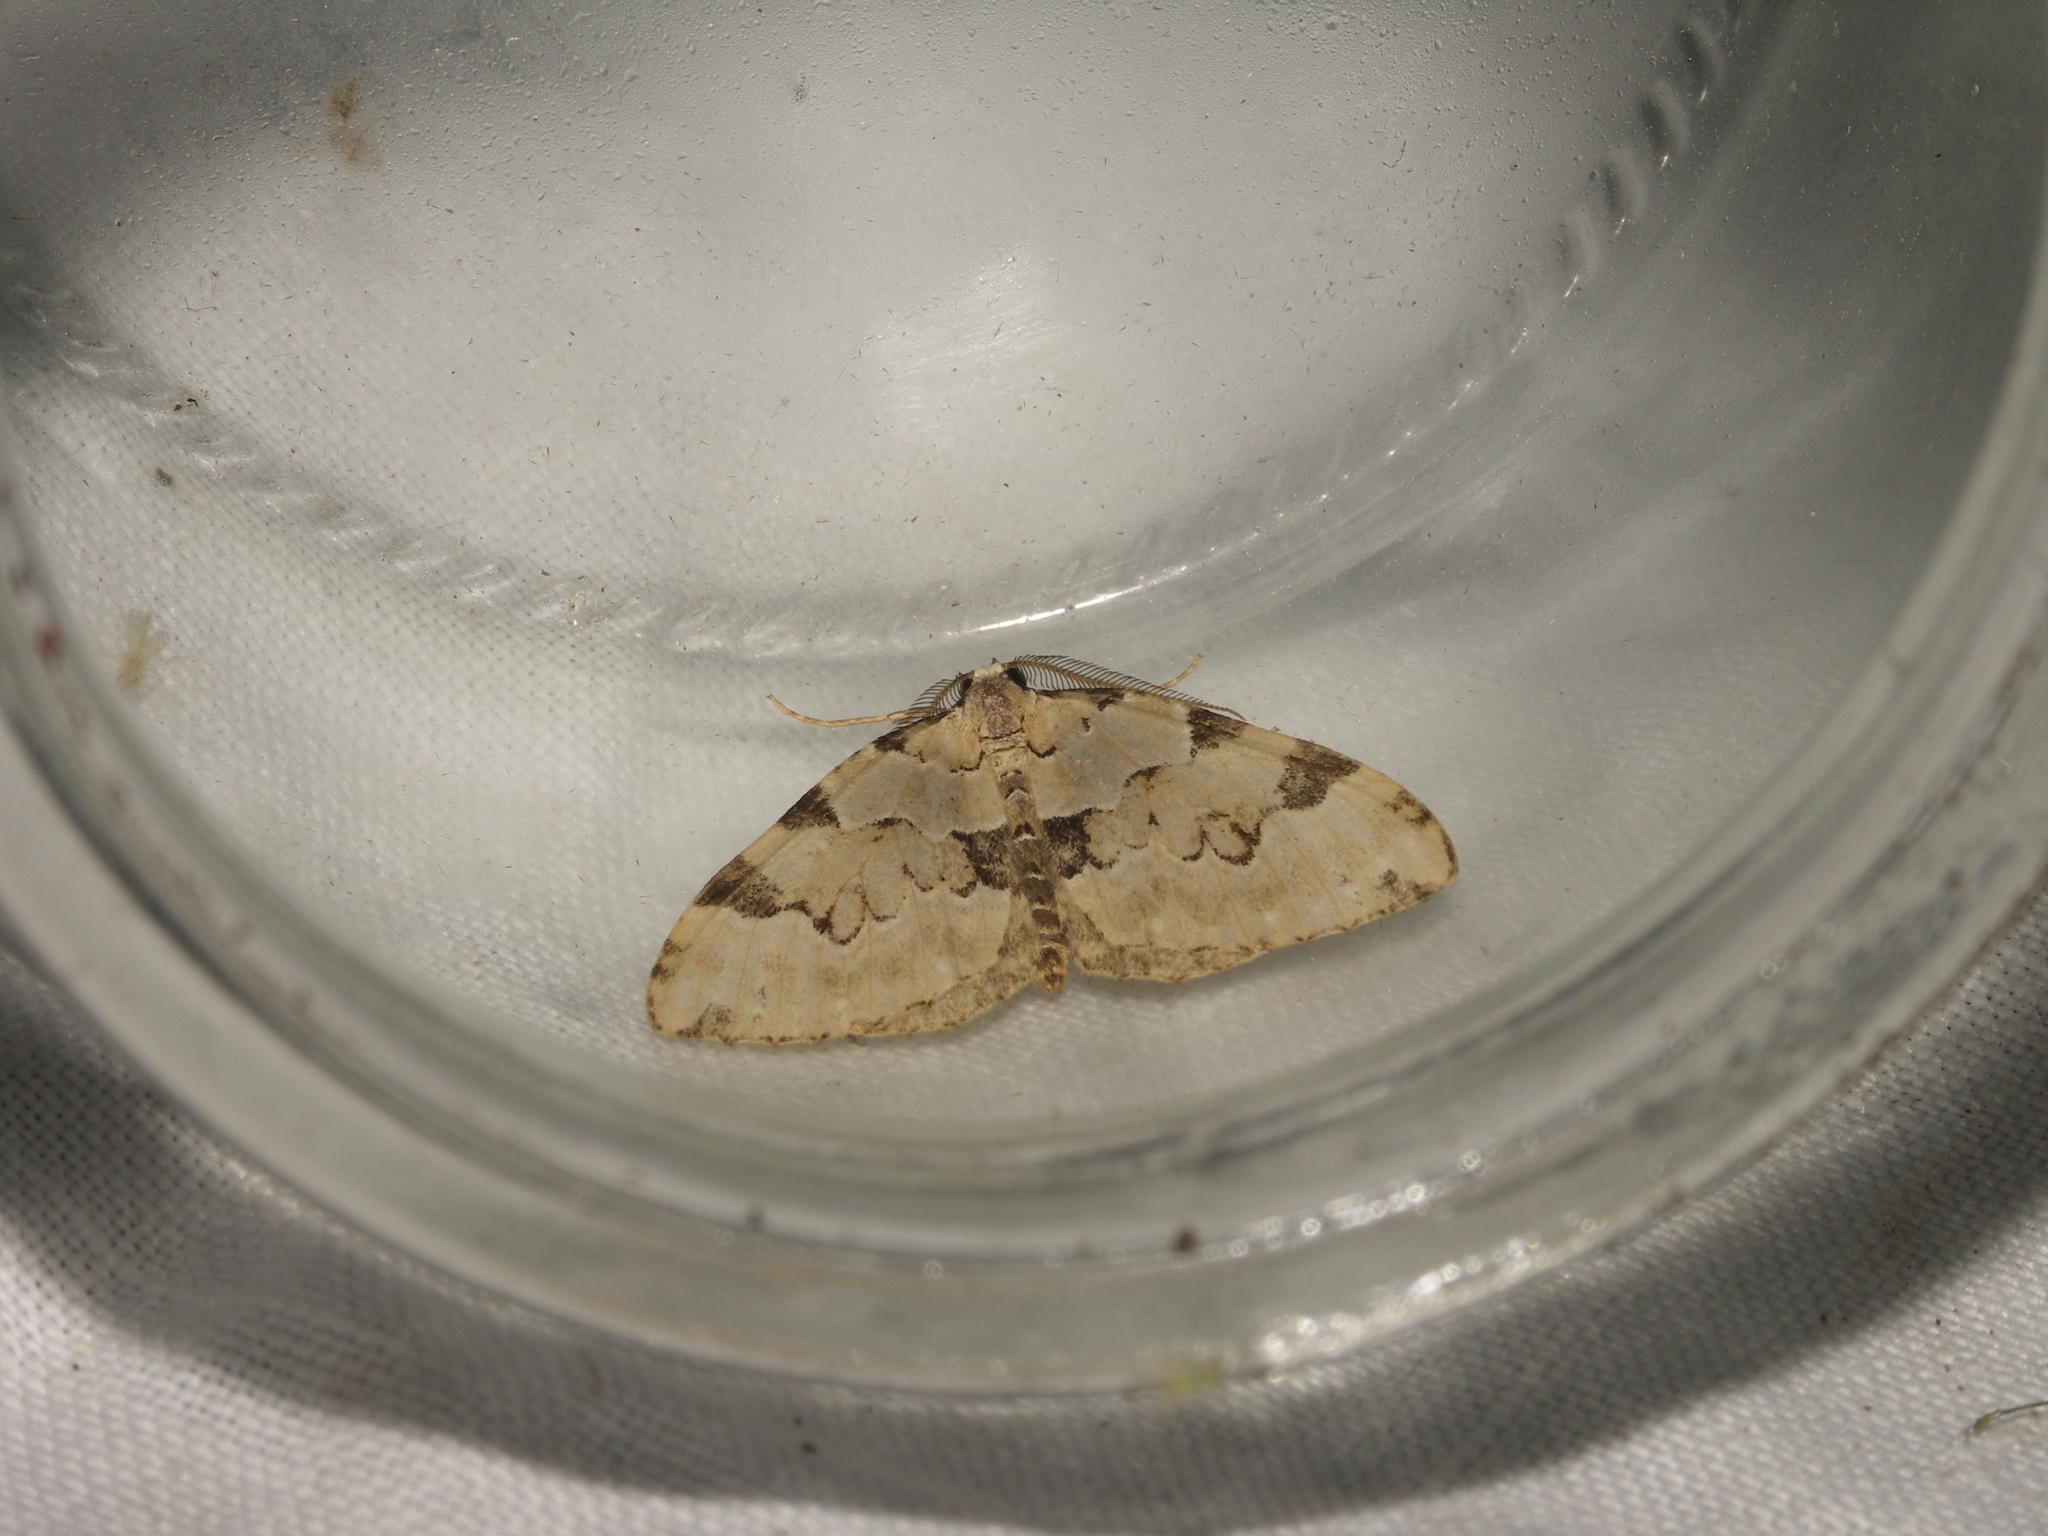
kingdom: Animalia
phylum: Arthropoda
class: Insecta
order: Lepidoptera
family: Geometridae
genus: Colostygia
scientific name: Colostygia pectinataria
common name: Green carpet
